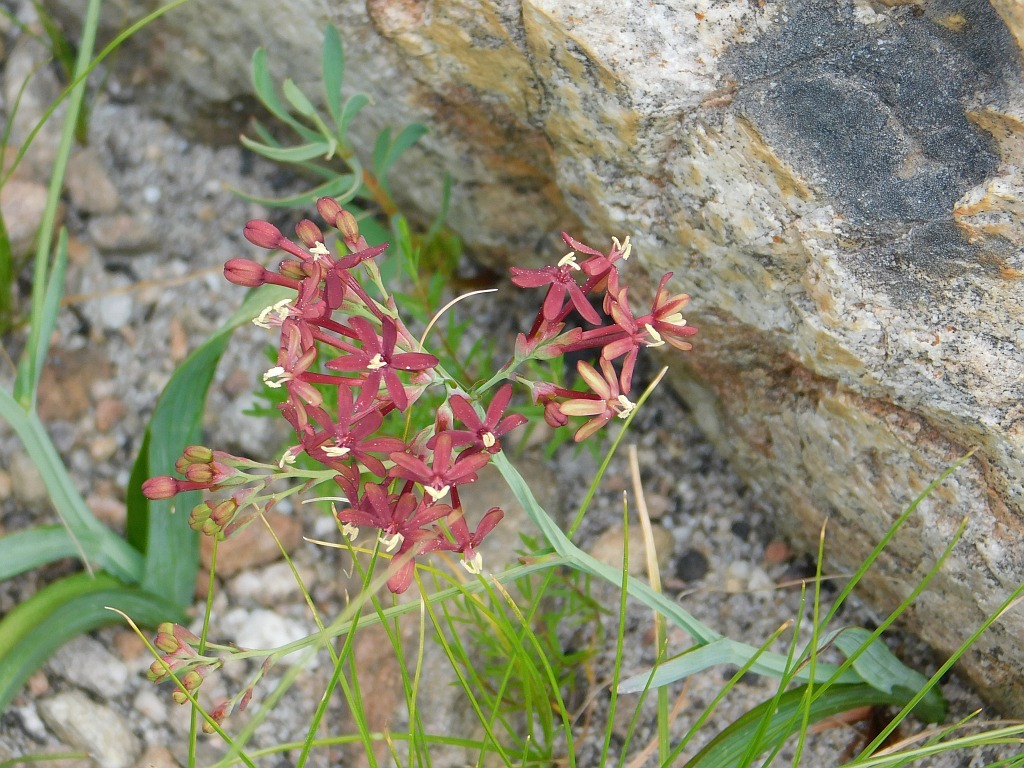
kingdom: Plantae
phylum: Tracheophyta
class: Liliopsida
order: Asparagales
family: Iridaceae
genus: Codonorhiza
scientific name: Codonorhiza micrantha
